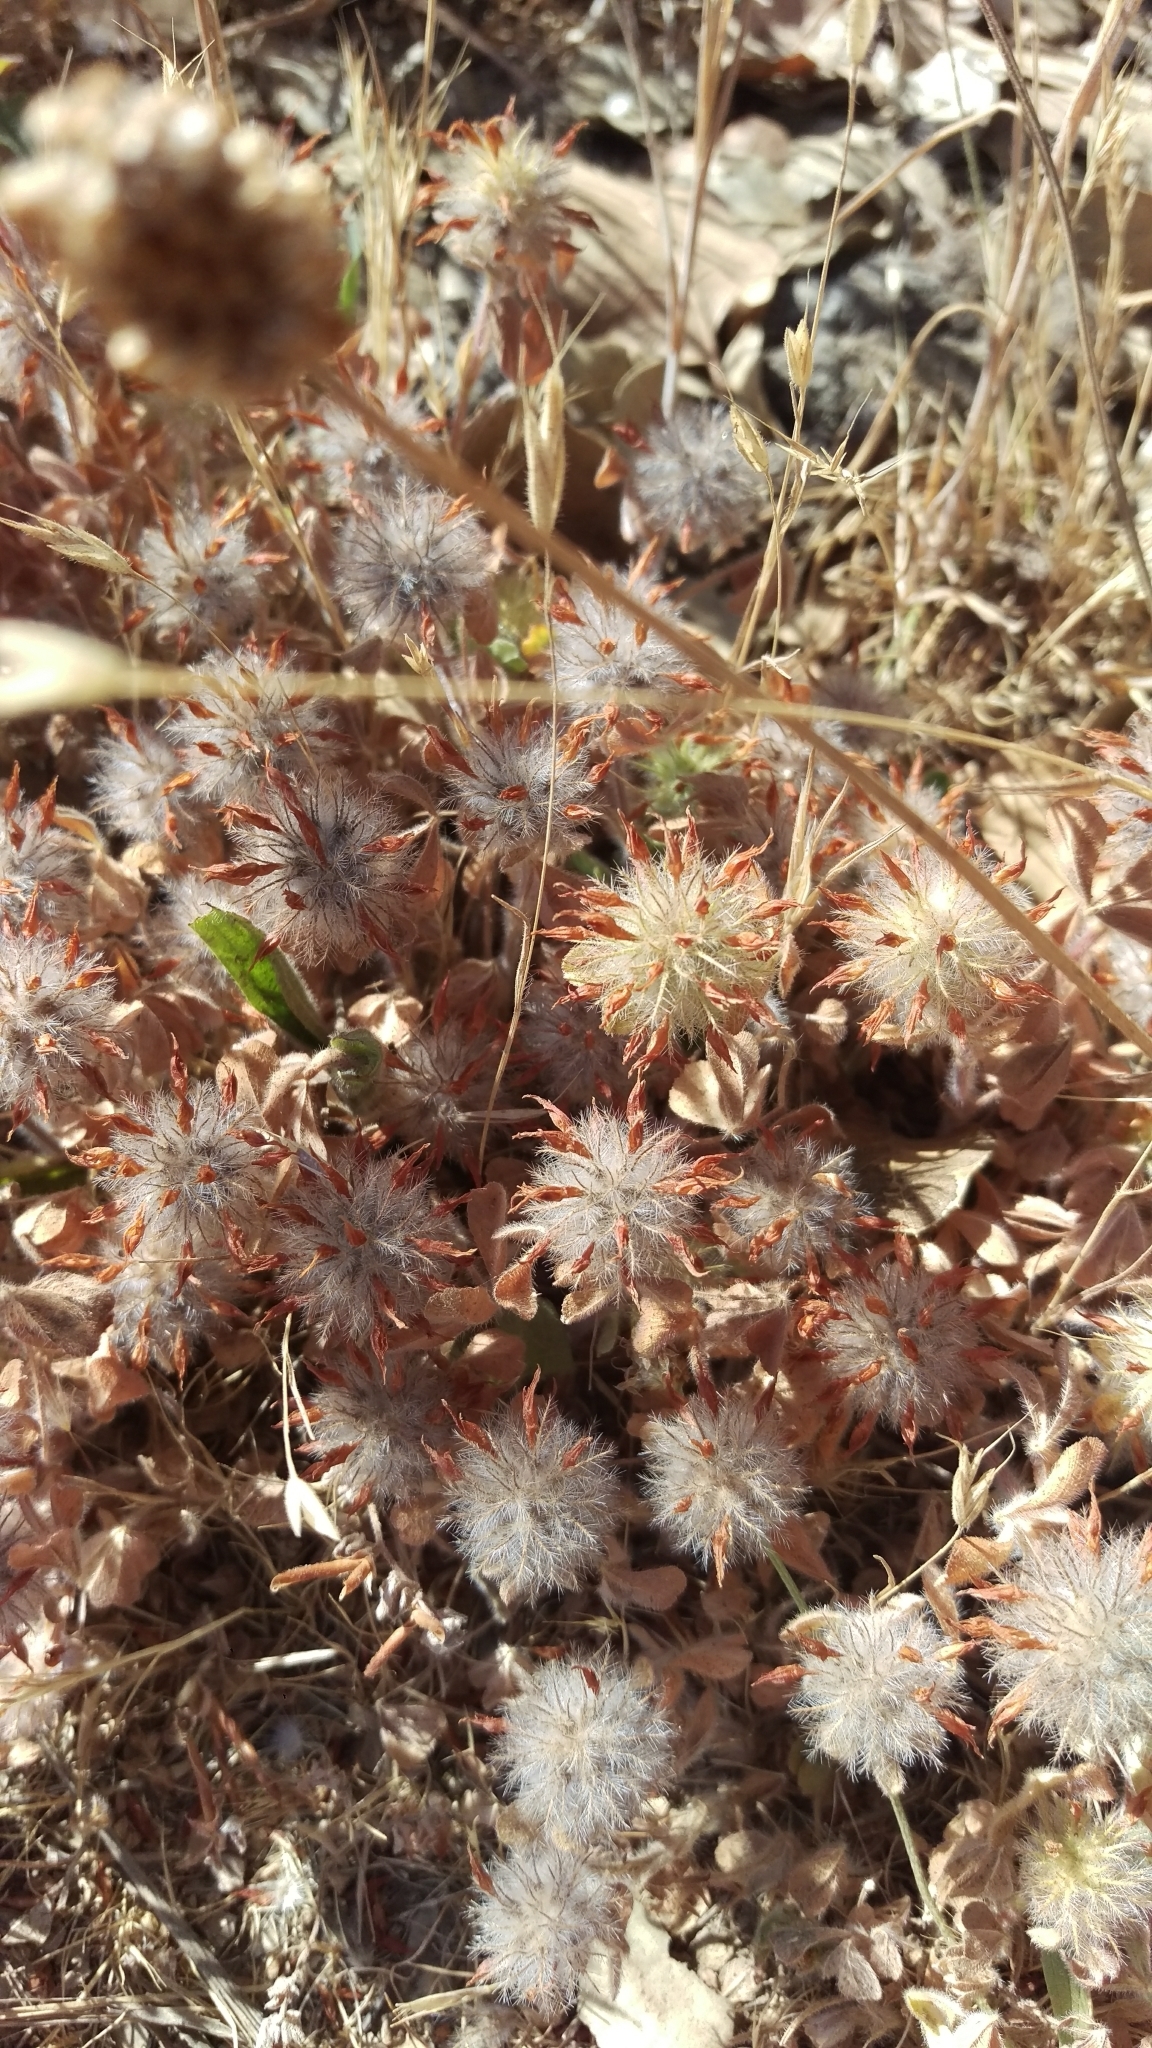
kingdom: Plantae
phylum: Tracheophyta
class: Magnoliopsida
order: Fabales
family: Fabaceae
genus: Trifolium
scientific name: Trifolium hirtum
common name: Rose clover
